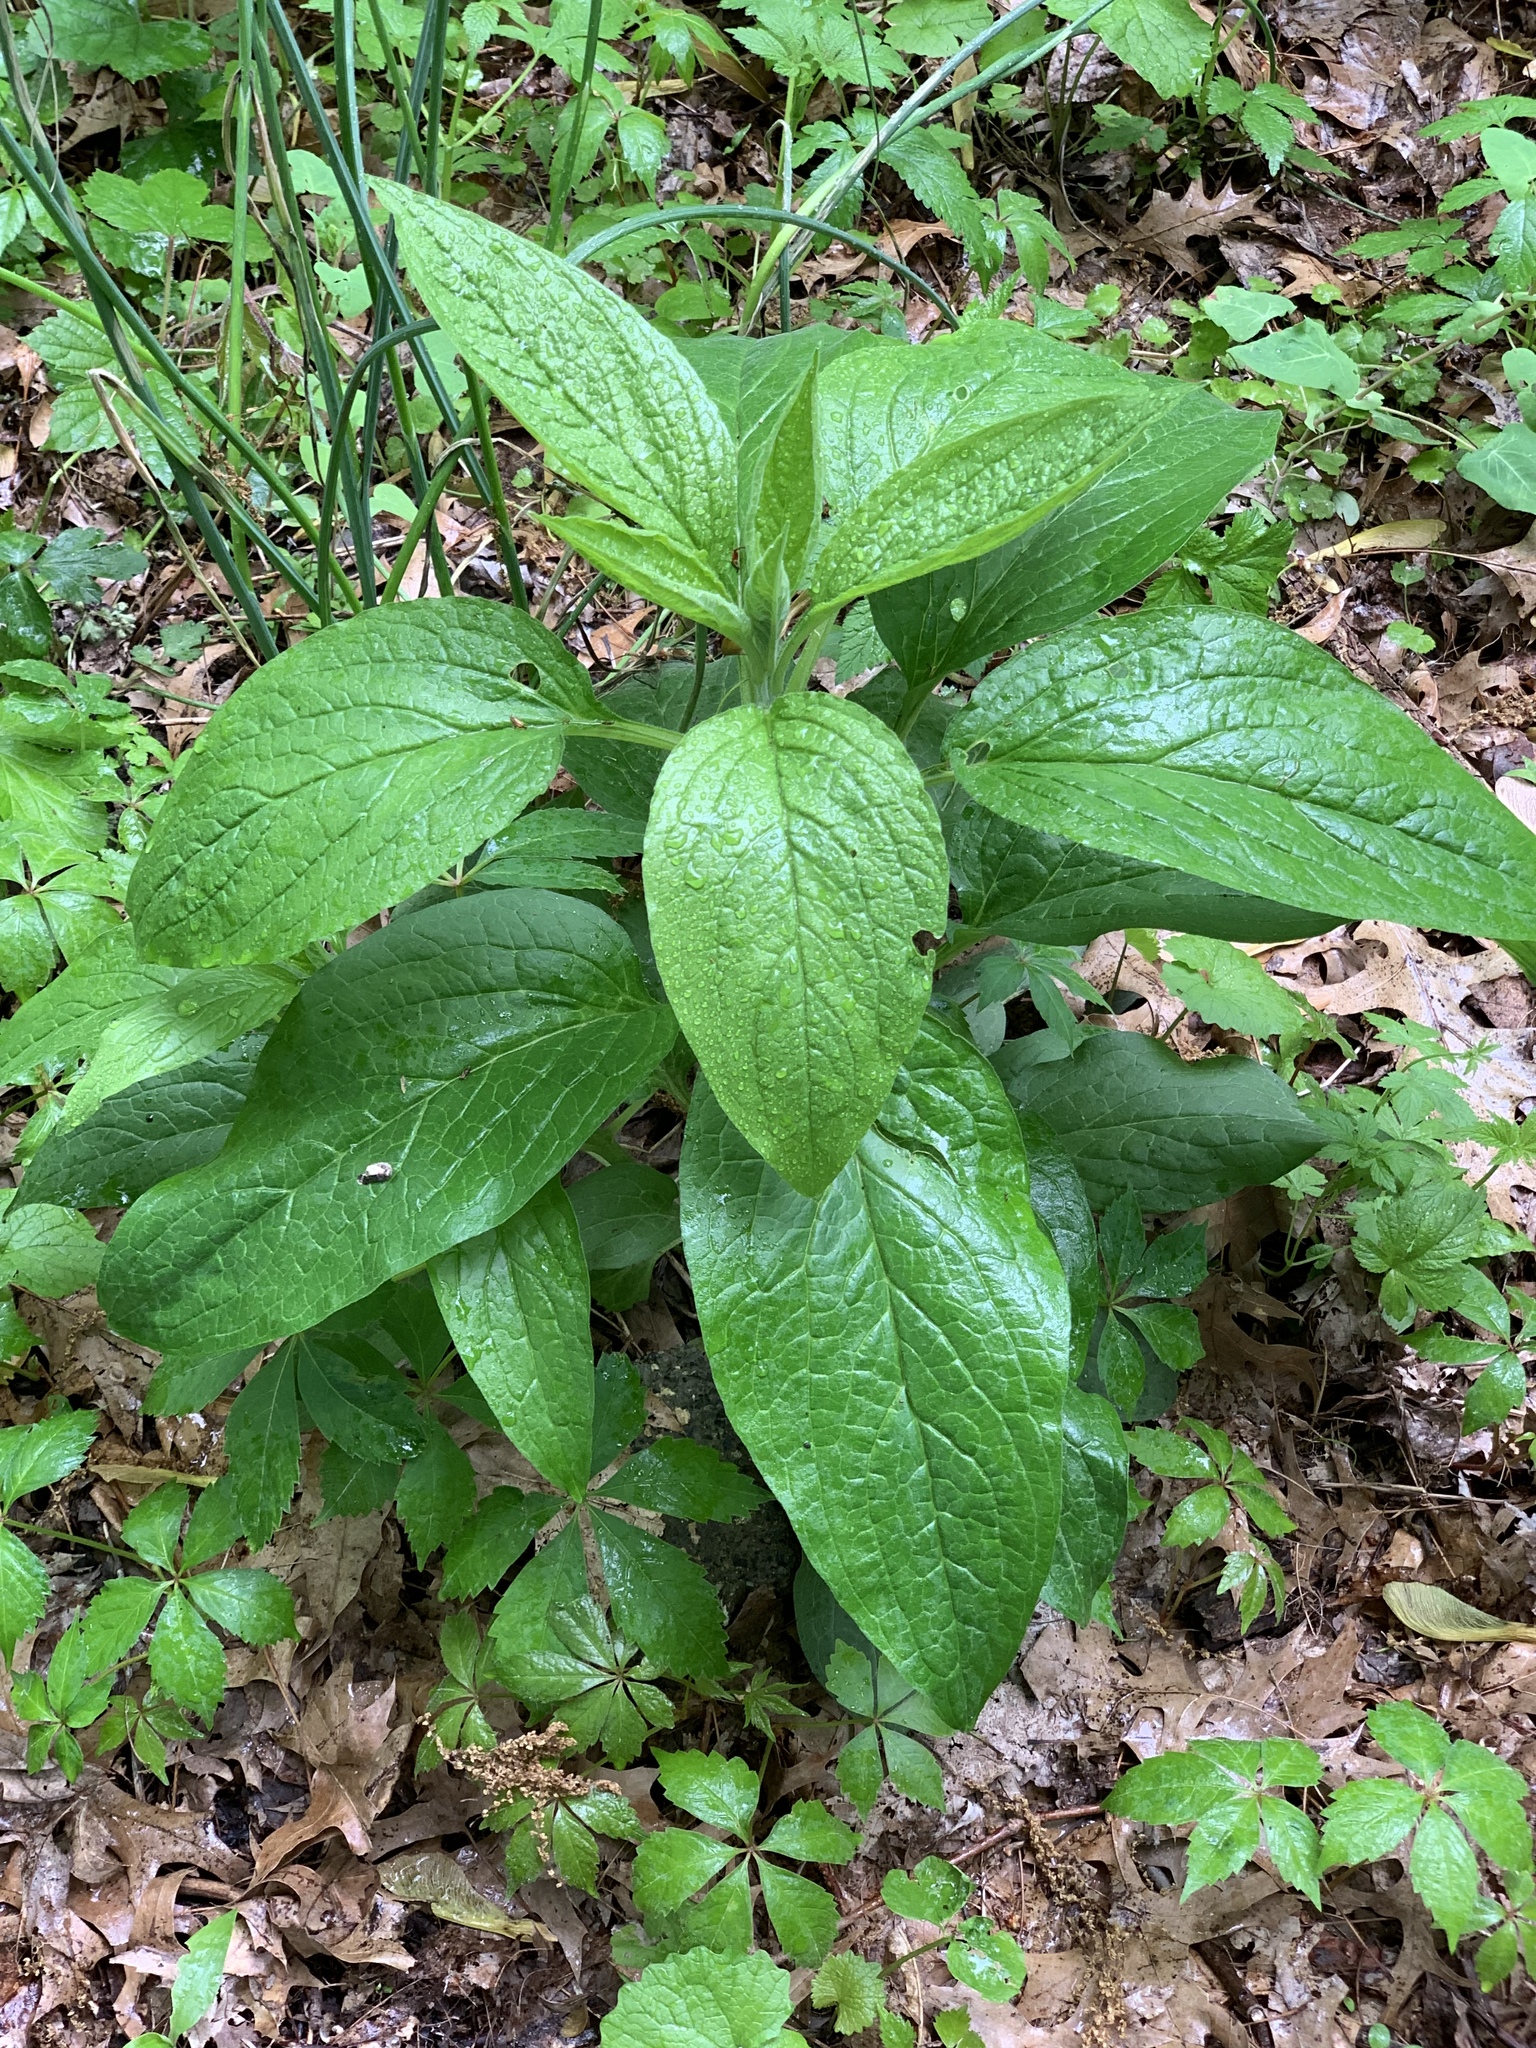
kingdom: Plantae
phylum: Tracheophyta
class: Magnoliopsida
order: Boraginales
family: Boraginaceae
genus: Hackelia
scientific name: Hackelia virginiana
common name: Beggar's-lice
